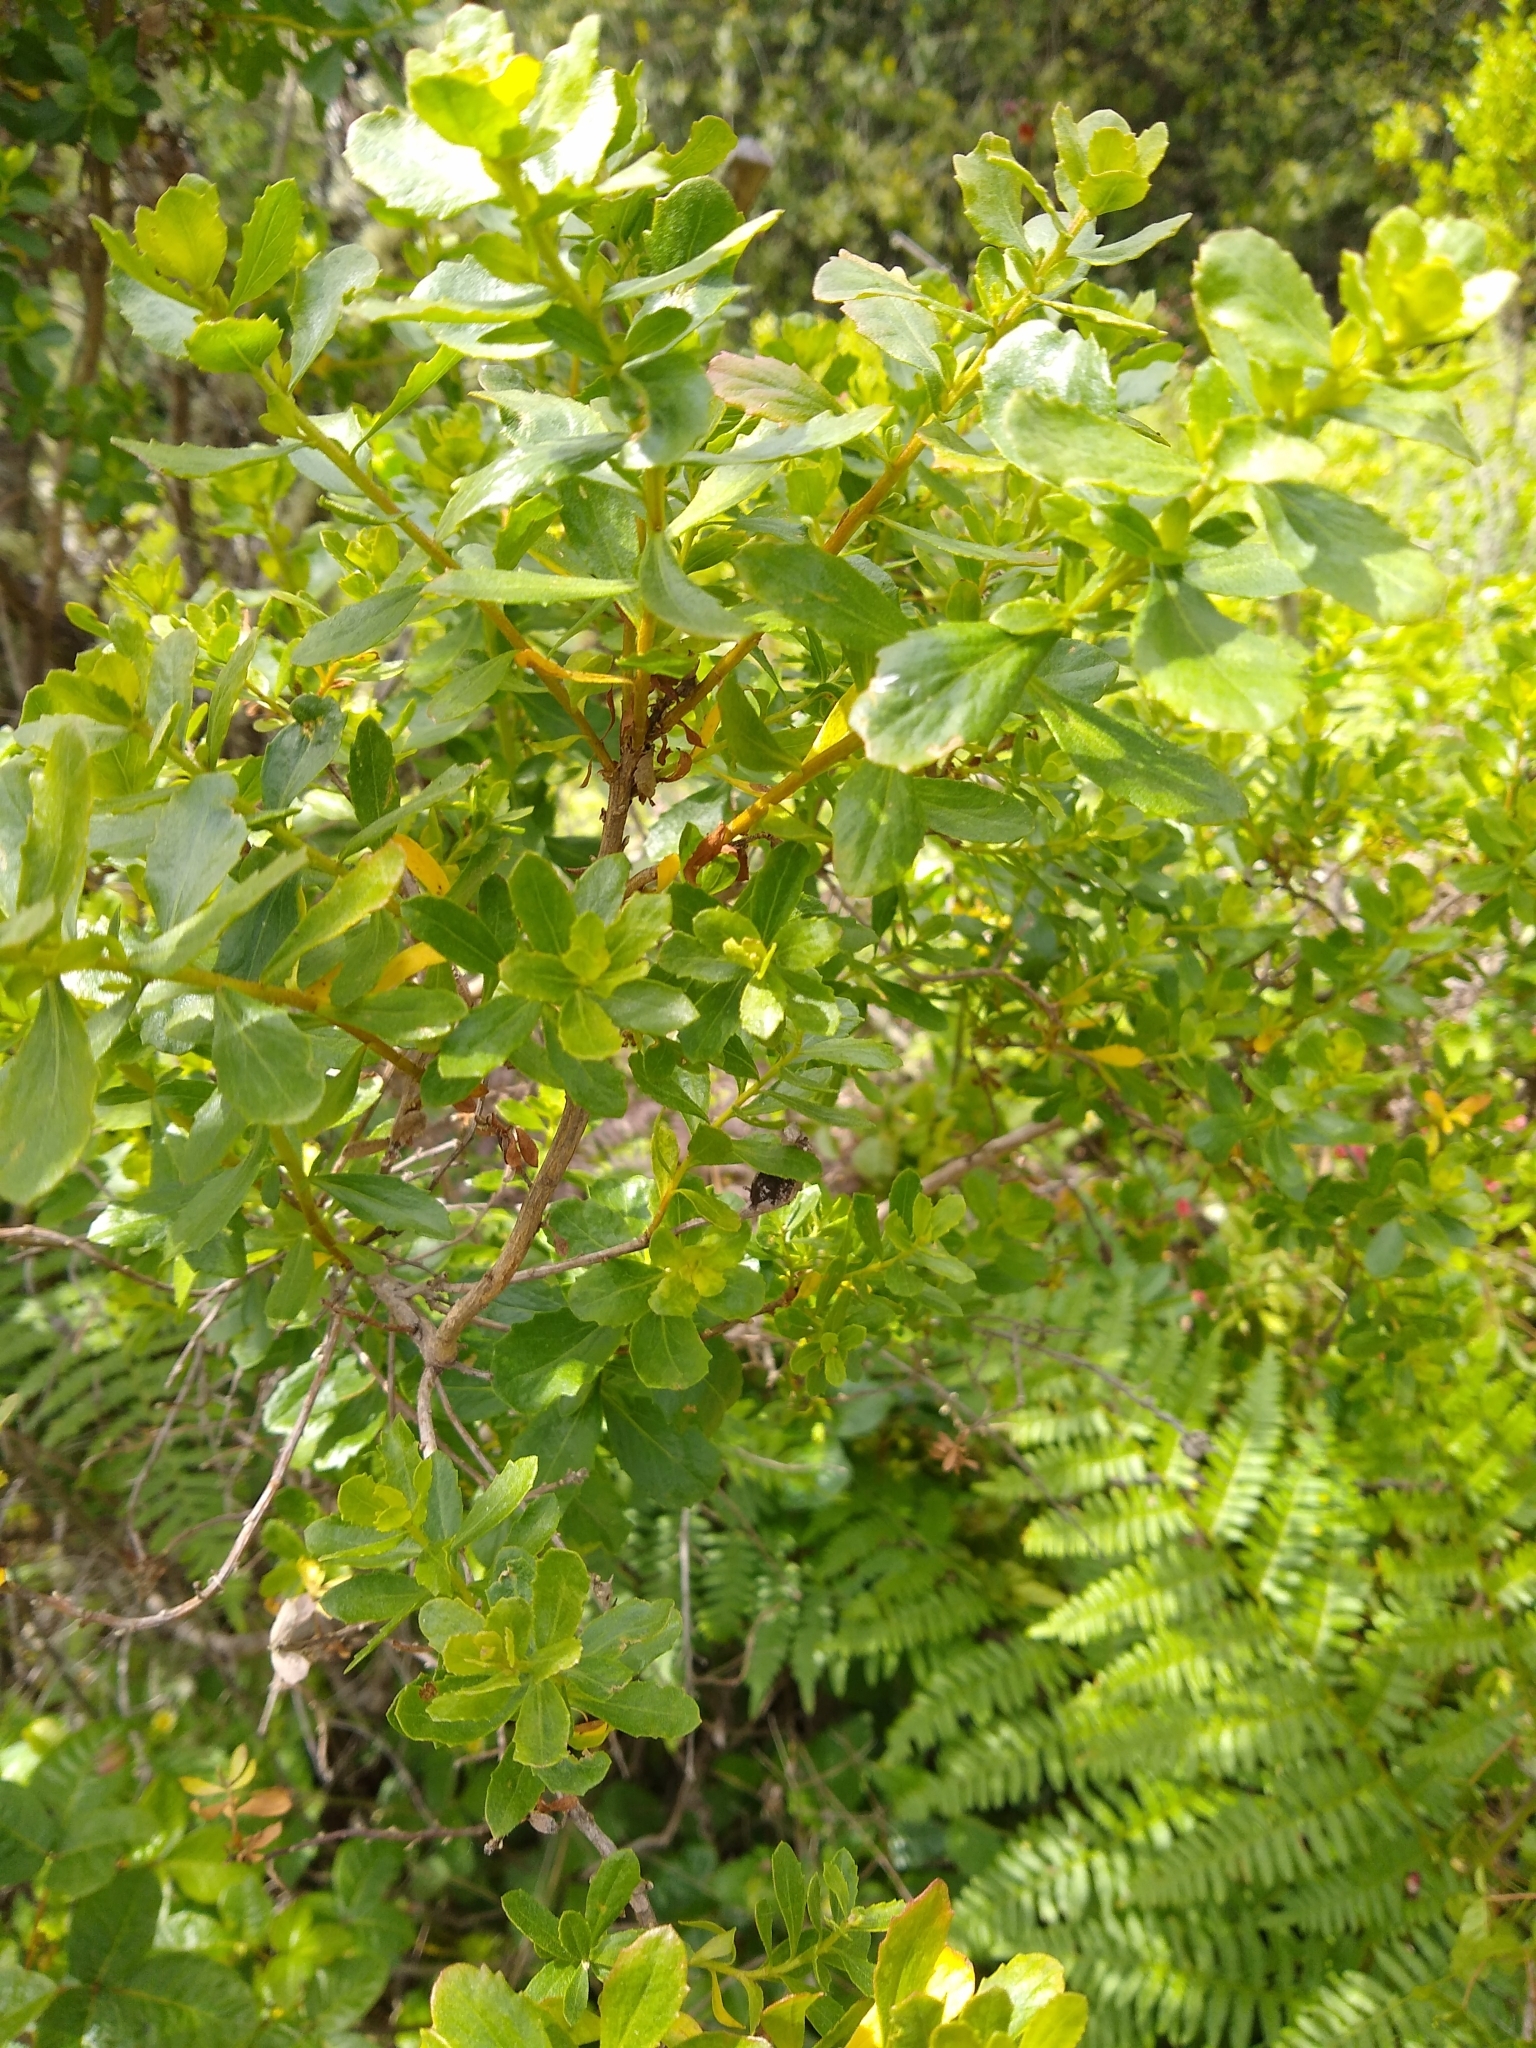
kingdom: Plantae
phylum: Tracheophyta
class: Magnoliopsida
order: Asterales
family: Asteraceae
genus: Baccharis
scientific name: Baccharis pilularis
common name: Coyotebrush
